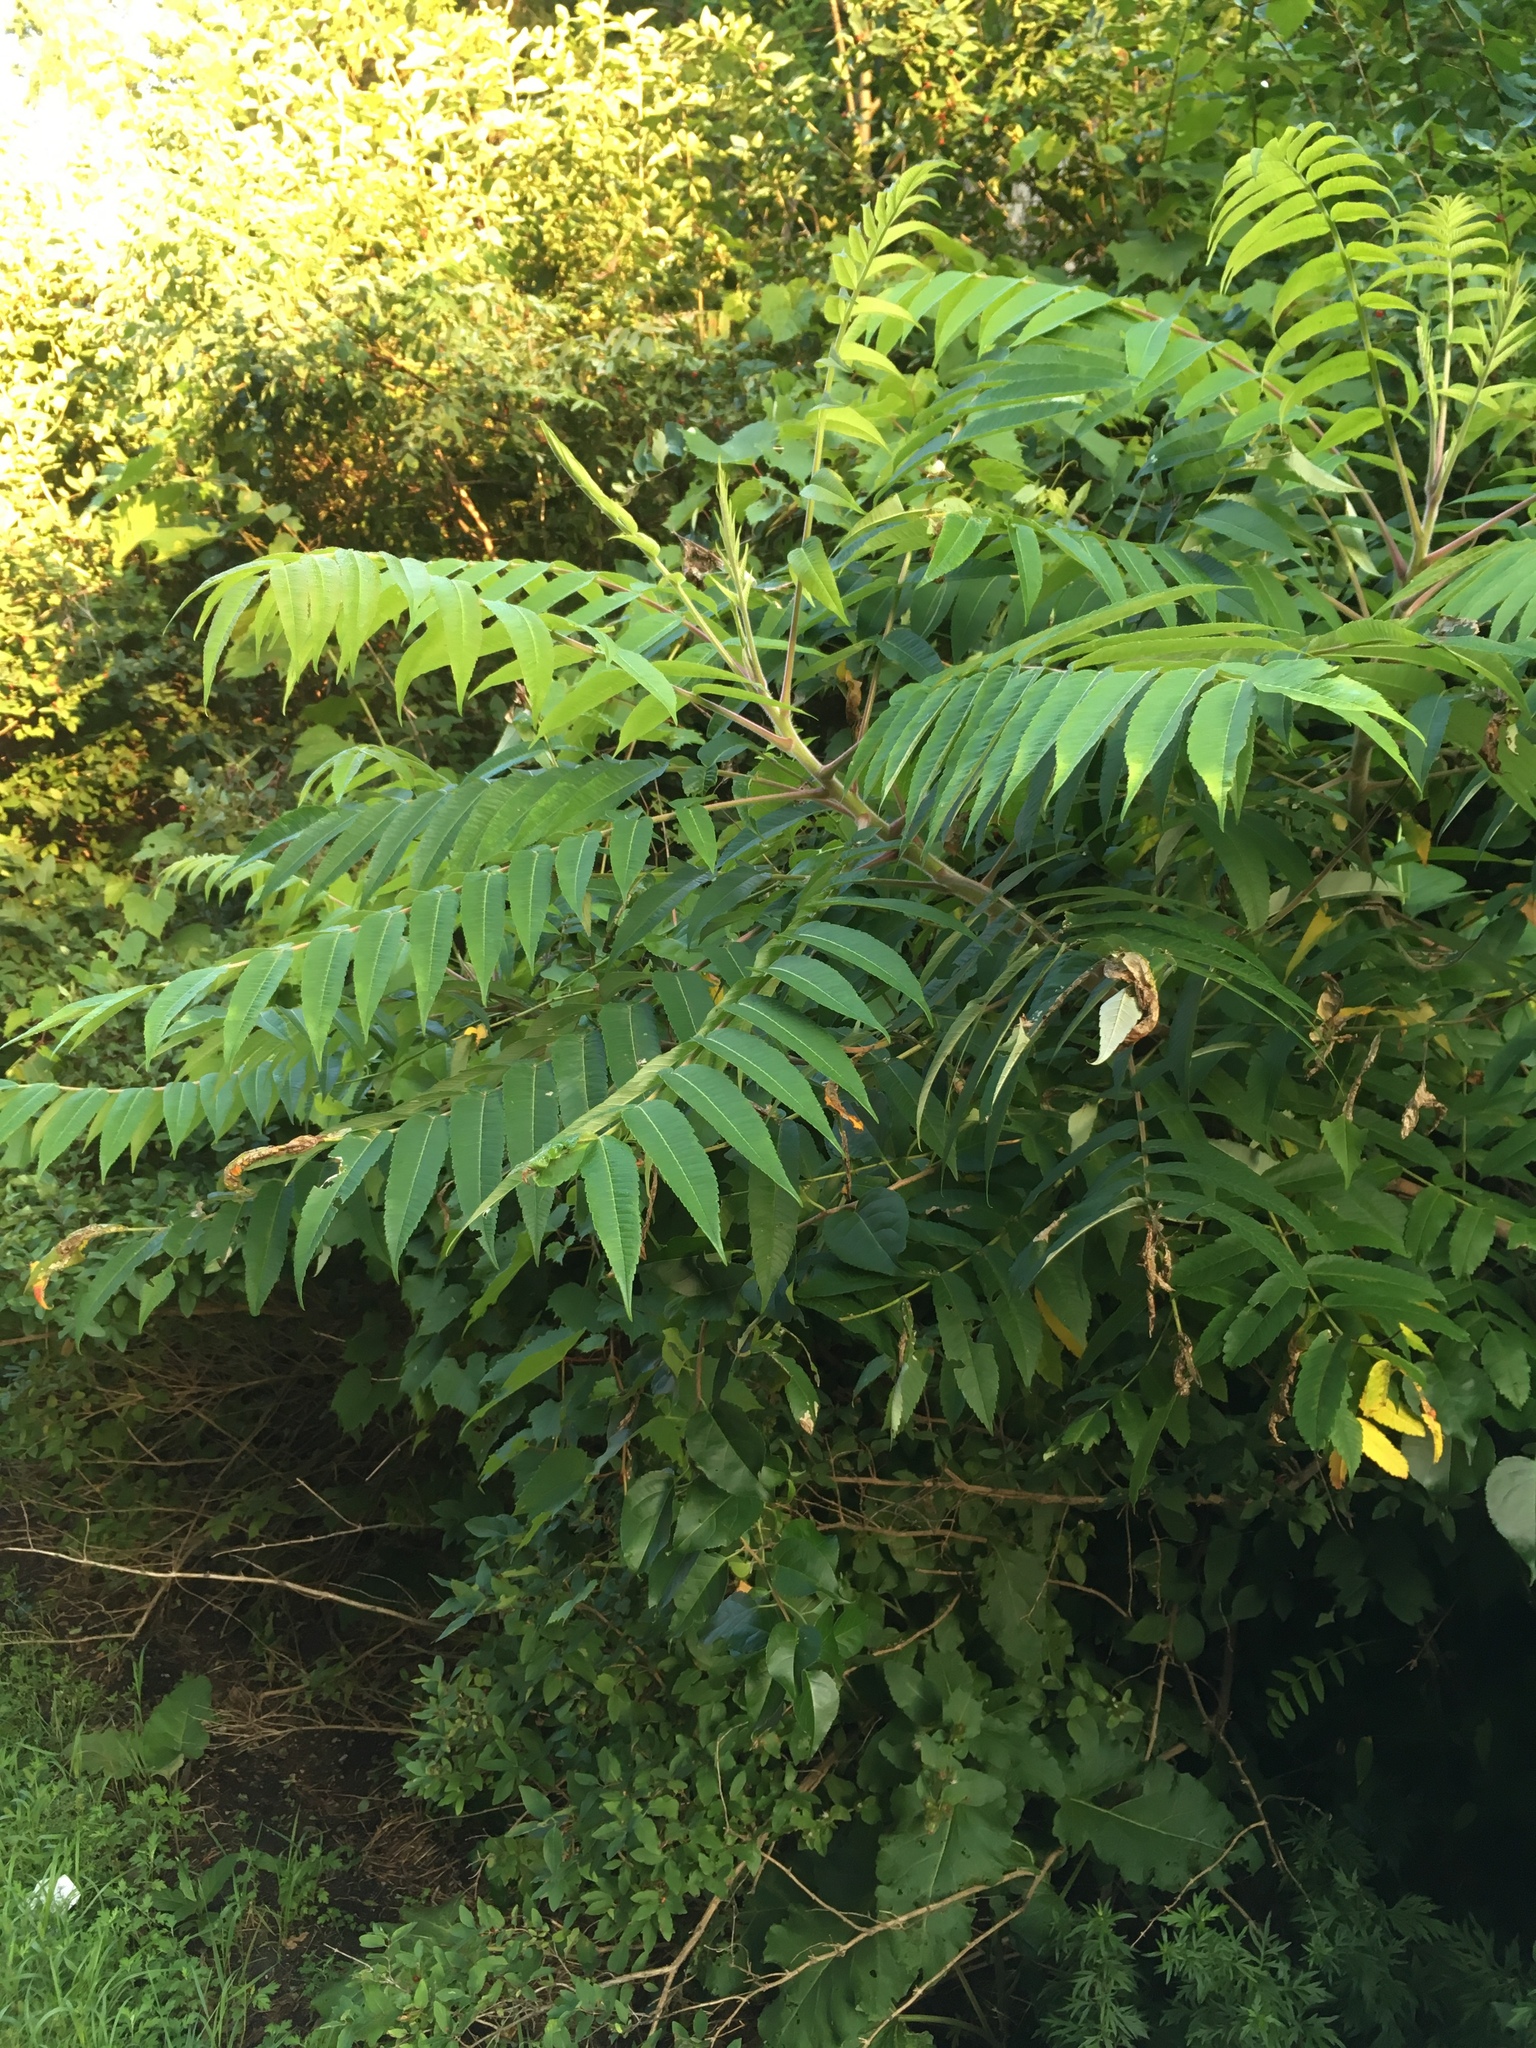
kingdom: Plantae
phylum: Tracheophyta
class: Magnoliopsida
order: Sapindales
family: Anacardiaceae
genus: Rhus
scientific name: Rhus typhina
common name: Staghorn sumac
